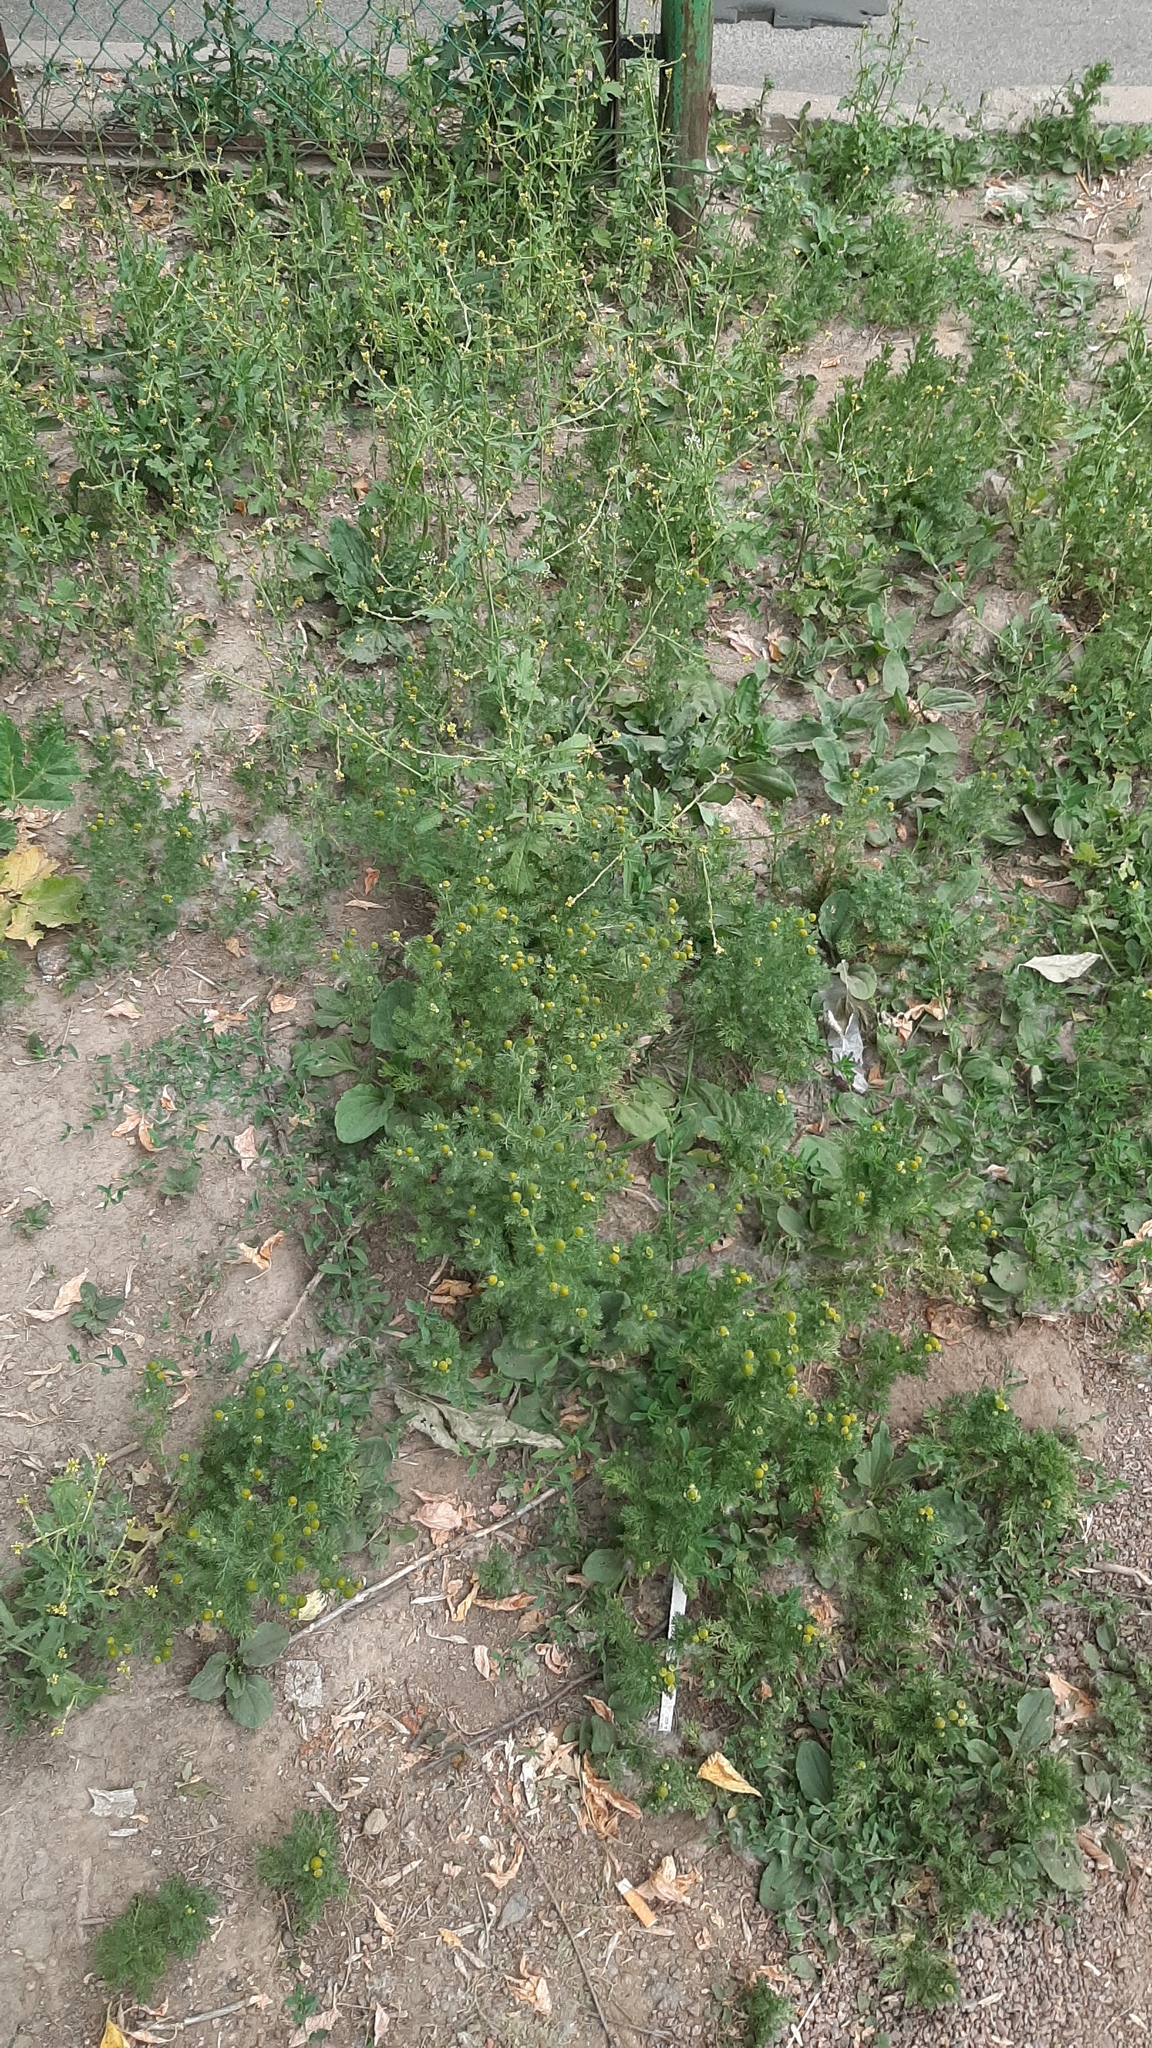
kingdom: Plantae
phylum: Tracheophyta
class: Magnoliopsida
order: Asterales
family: Asteraceae
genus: Matricaria
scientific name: Matricaria discoidea
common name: Disc mayweed
